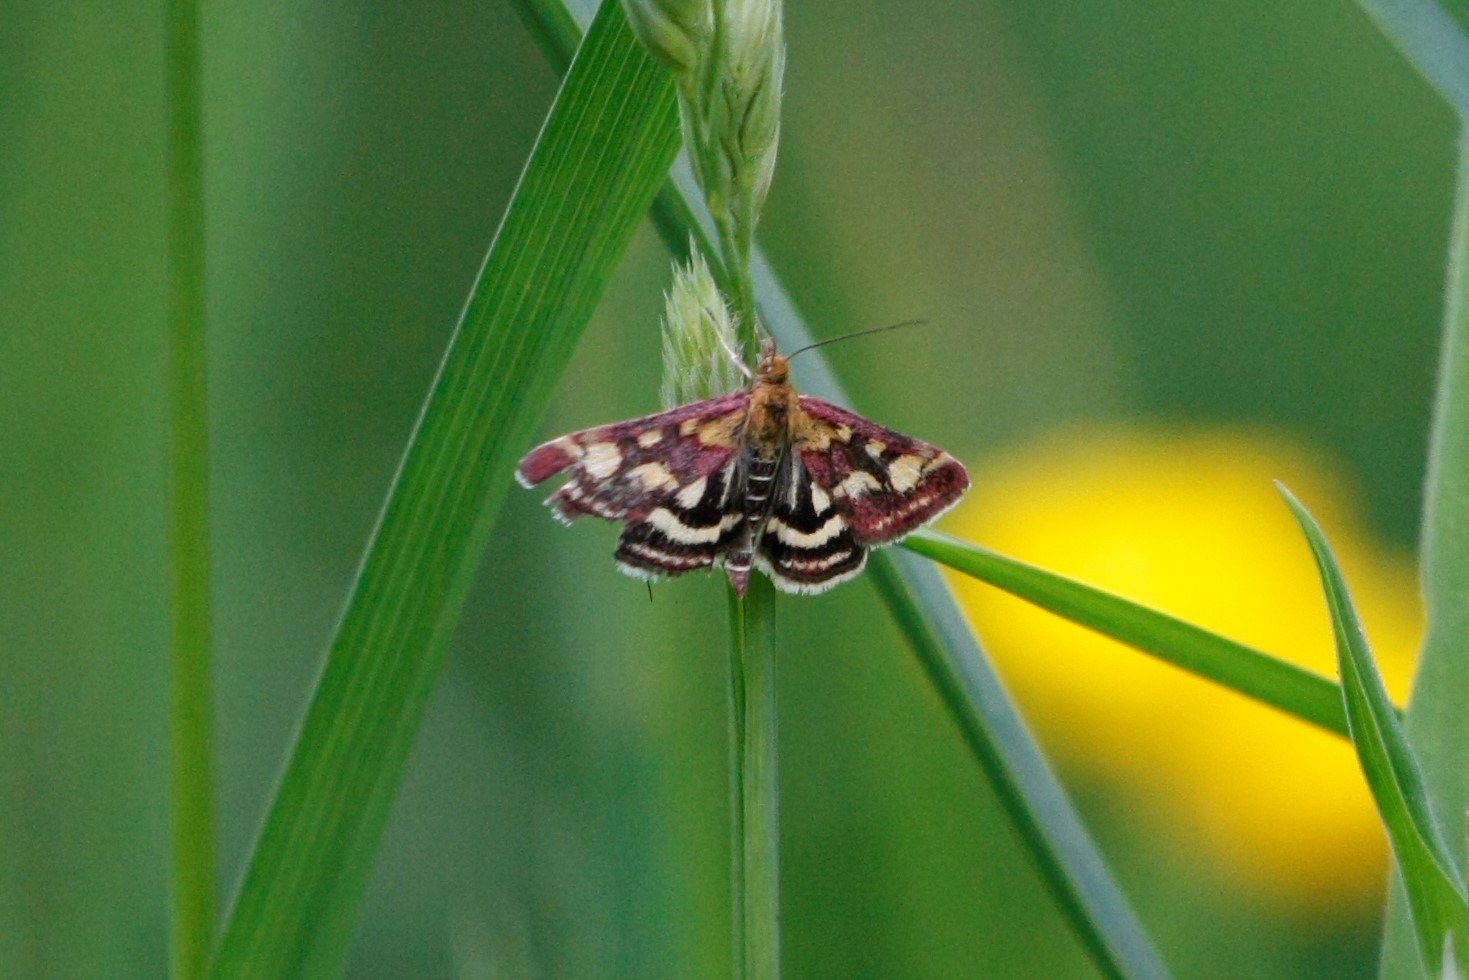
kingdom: Animalia
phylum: Arthropoda
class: Insecta
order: Lepidoptera
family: Crambidae
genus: Pyrausta
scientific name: Pyrausta purpuralis
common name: Common purple & gold
